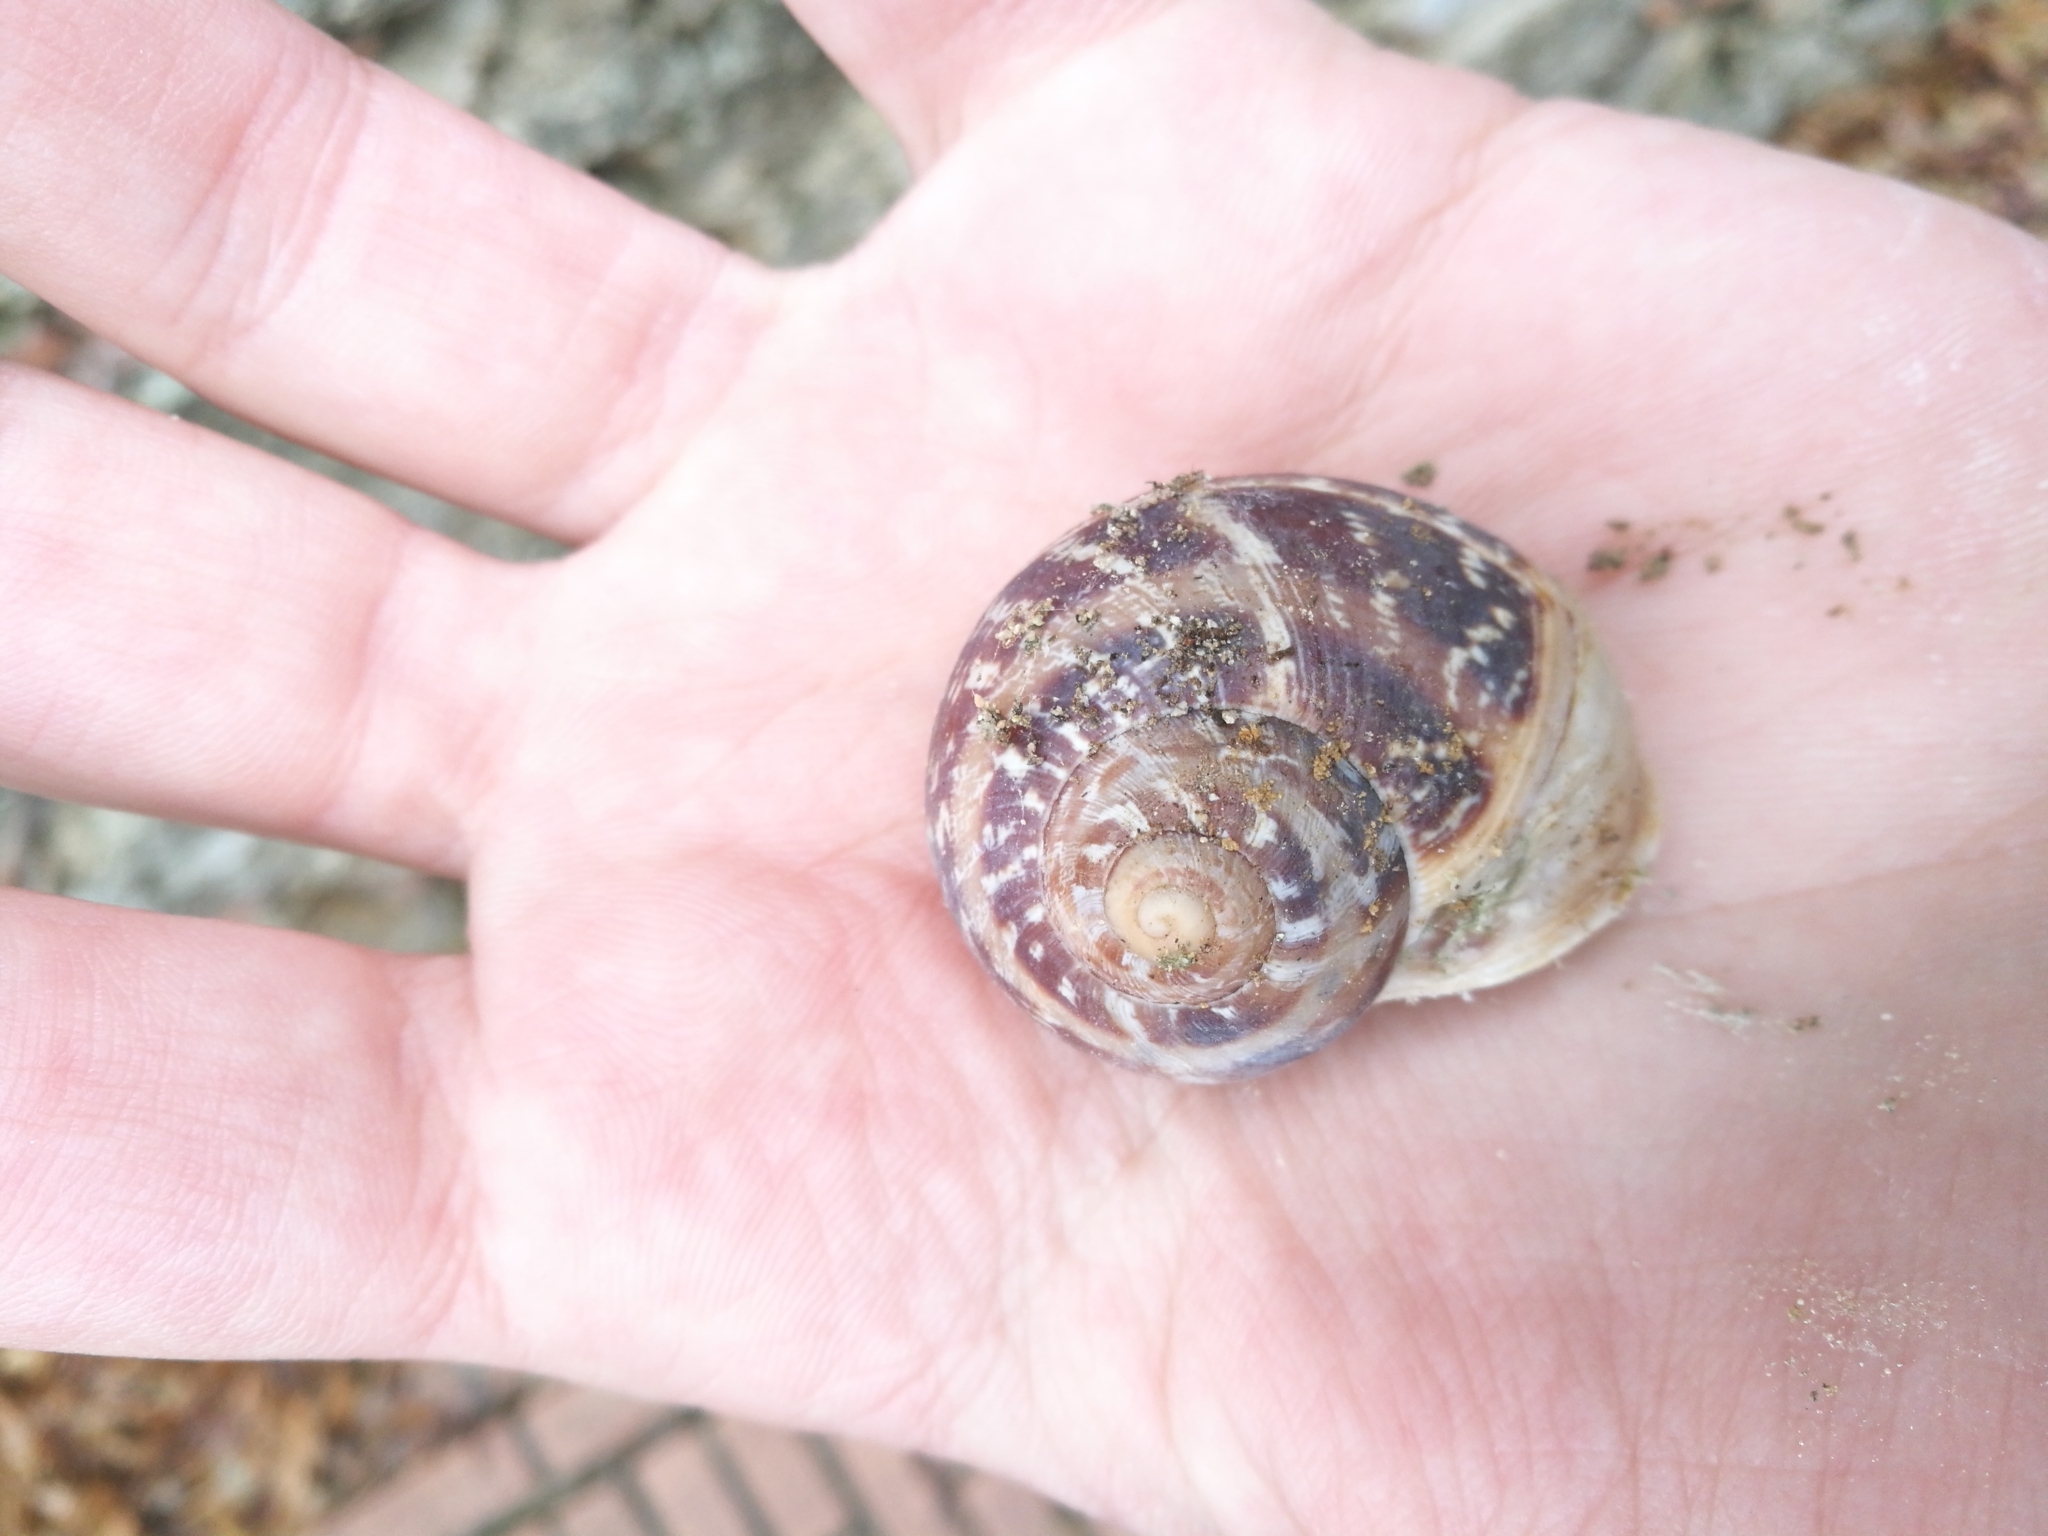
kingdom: Animalia
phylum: Mollusca
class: Gastropoda
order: Stylommatophora
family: Helicidae
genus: Cornu
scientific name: Cornu aspersum
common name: Brown garden snail
